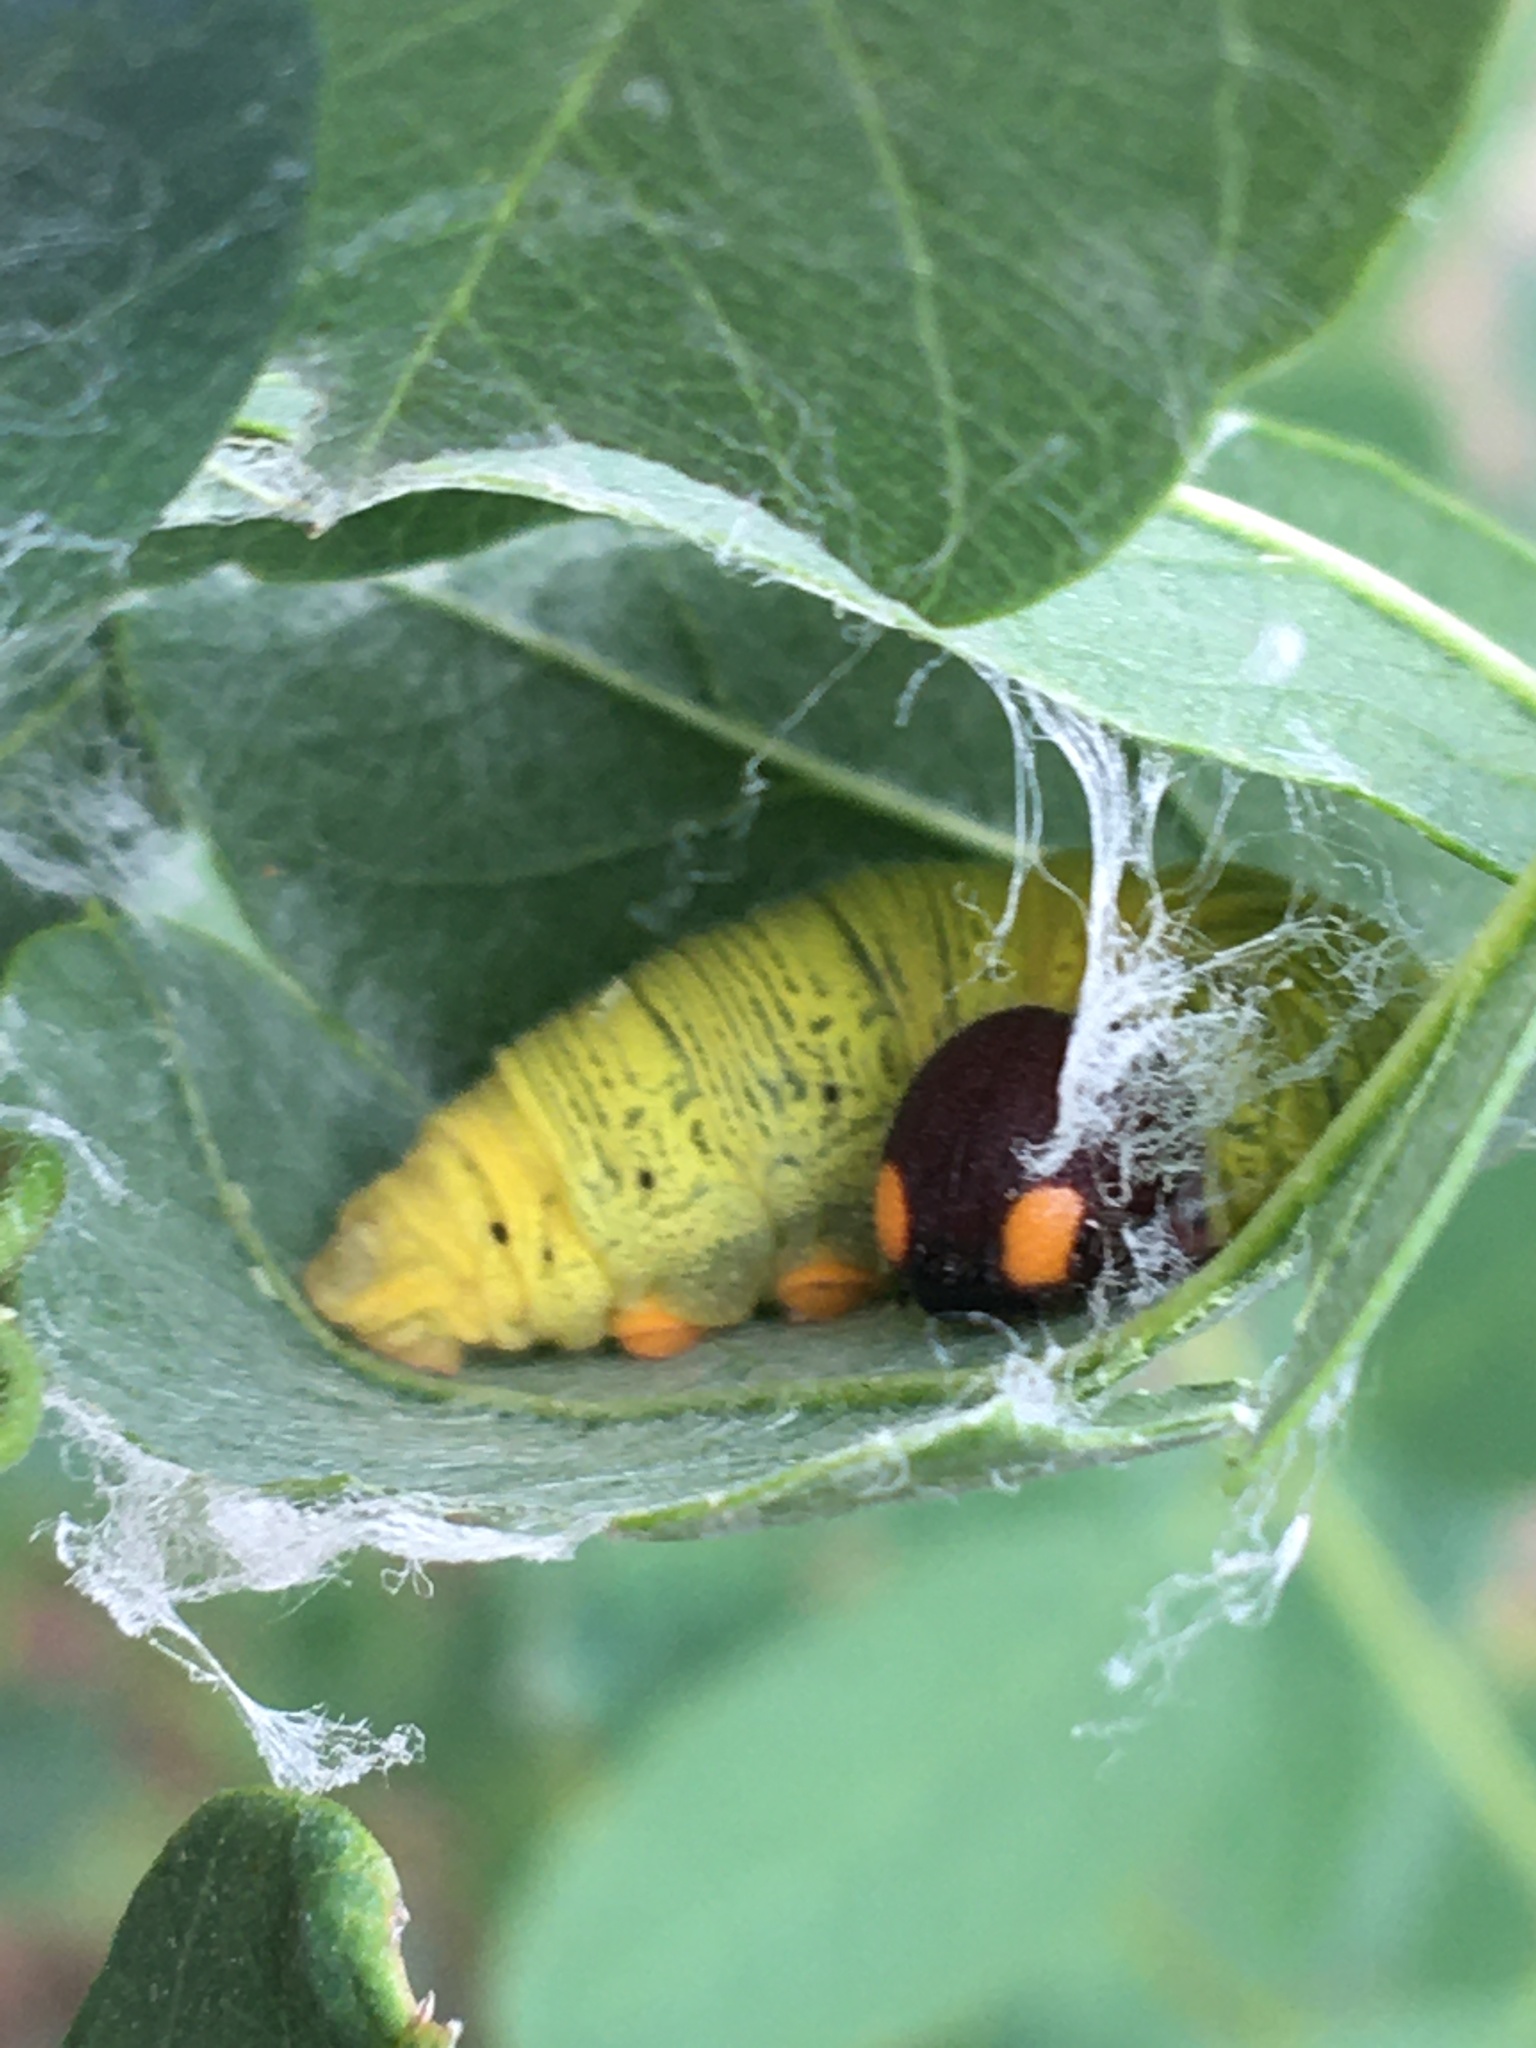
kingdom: Animalia
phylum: Arthropoda
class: Insecta
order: Lepidoptera
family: Hesperiidae
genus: Epargyreus
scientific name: Epargyreus clarus
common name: Silver-spotted skipper
